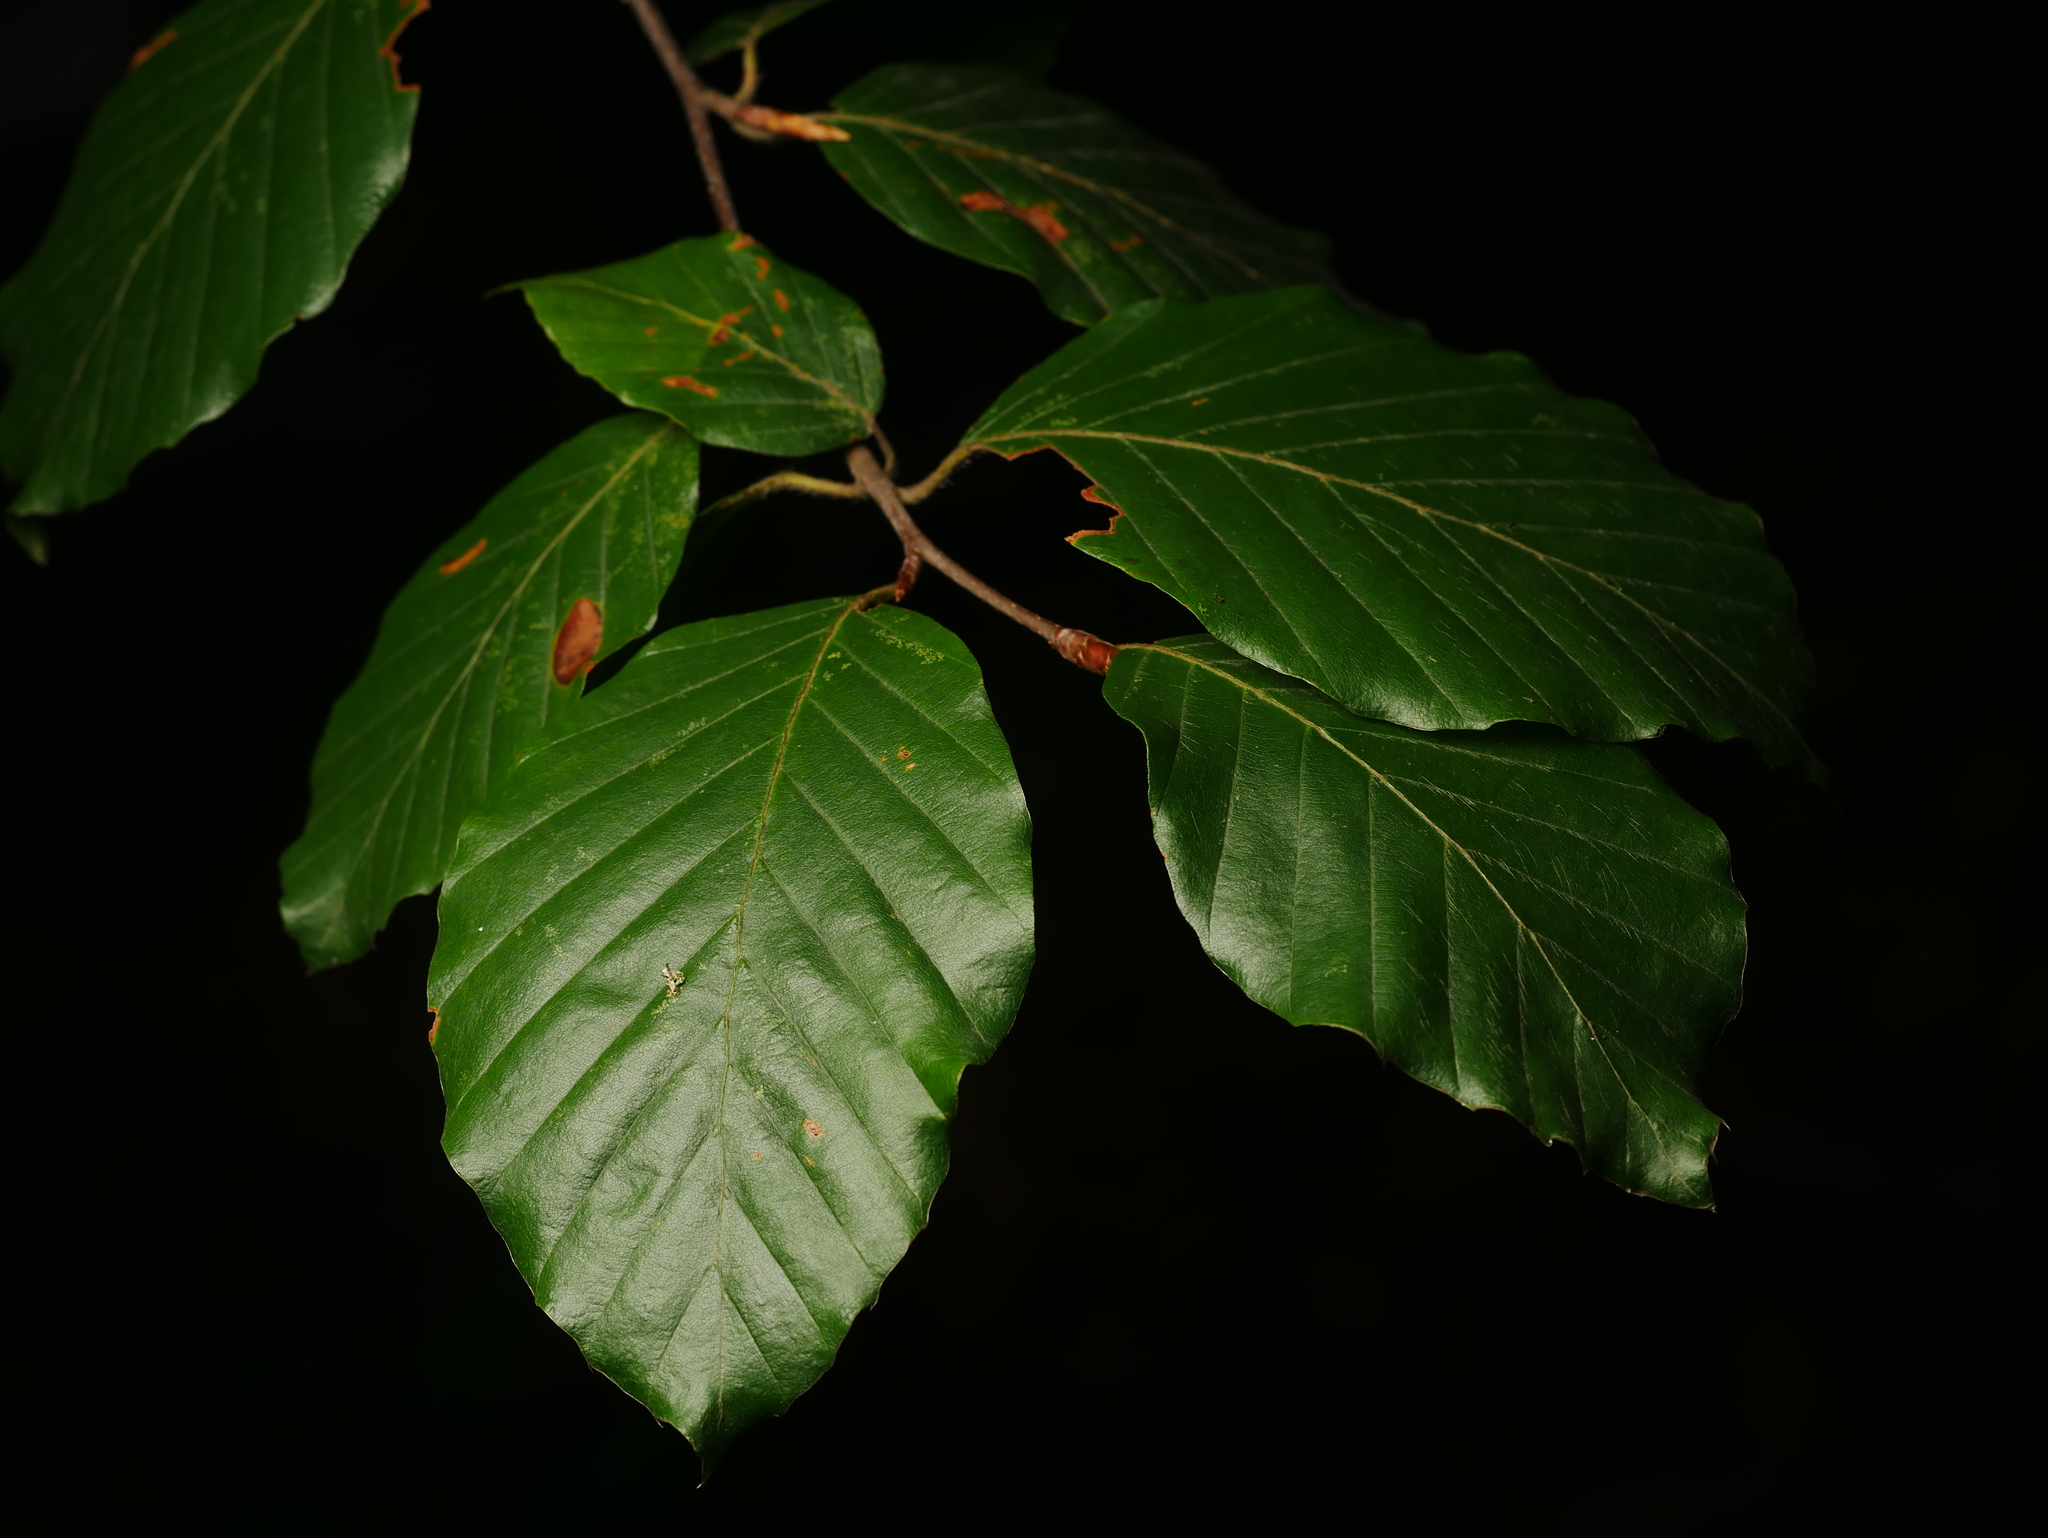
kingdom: Plantae
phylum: Tracheophyta
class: Magnoliopsida
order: Fagales
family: Fagaceae
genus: Fagus
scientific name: Fagus sylvatica
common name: Beech
